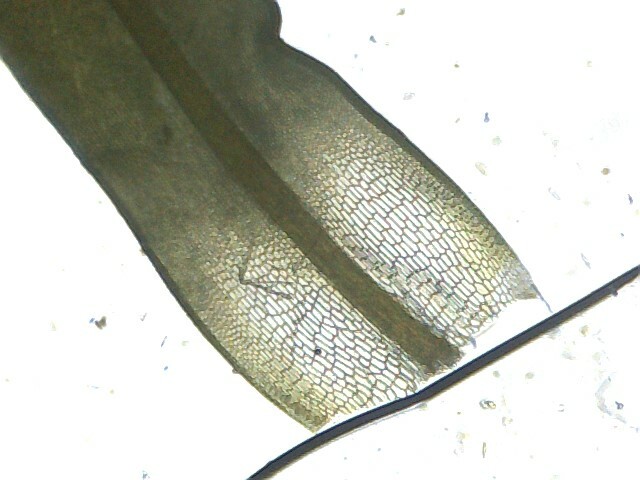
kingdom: Plantae
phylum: Bryophyta
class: Bryopsida
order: Pottiales
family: Pottiaceae
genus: Syntrichia
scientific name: Syntrichia montana
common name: Intermediate screw-moss
